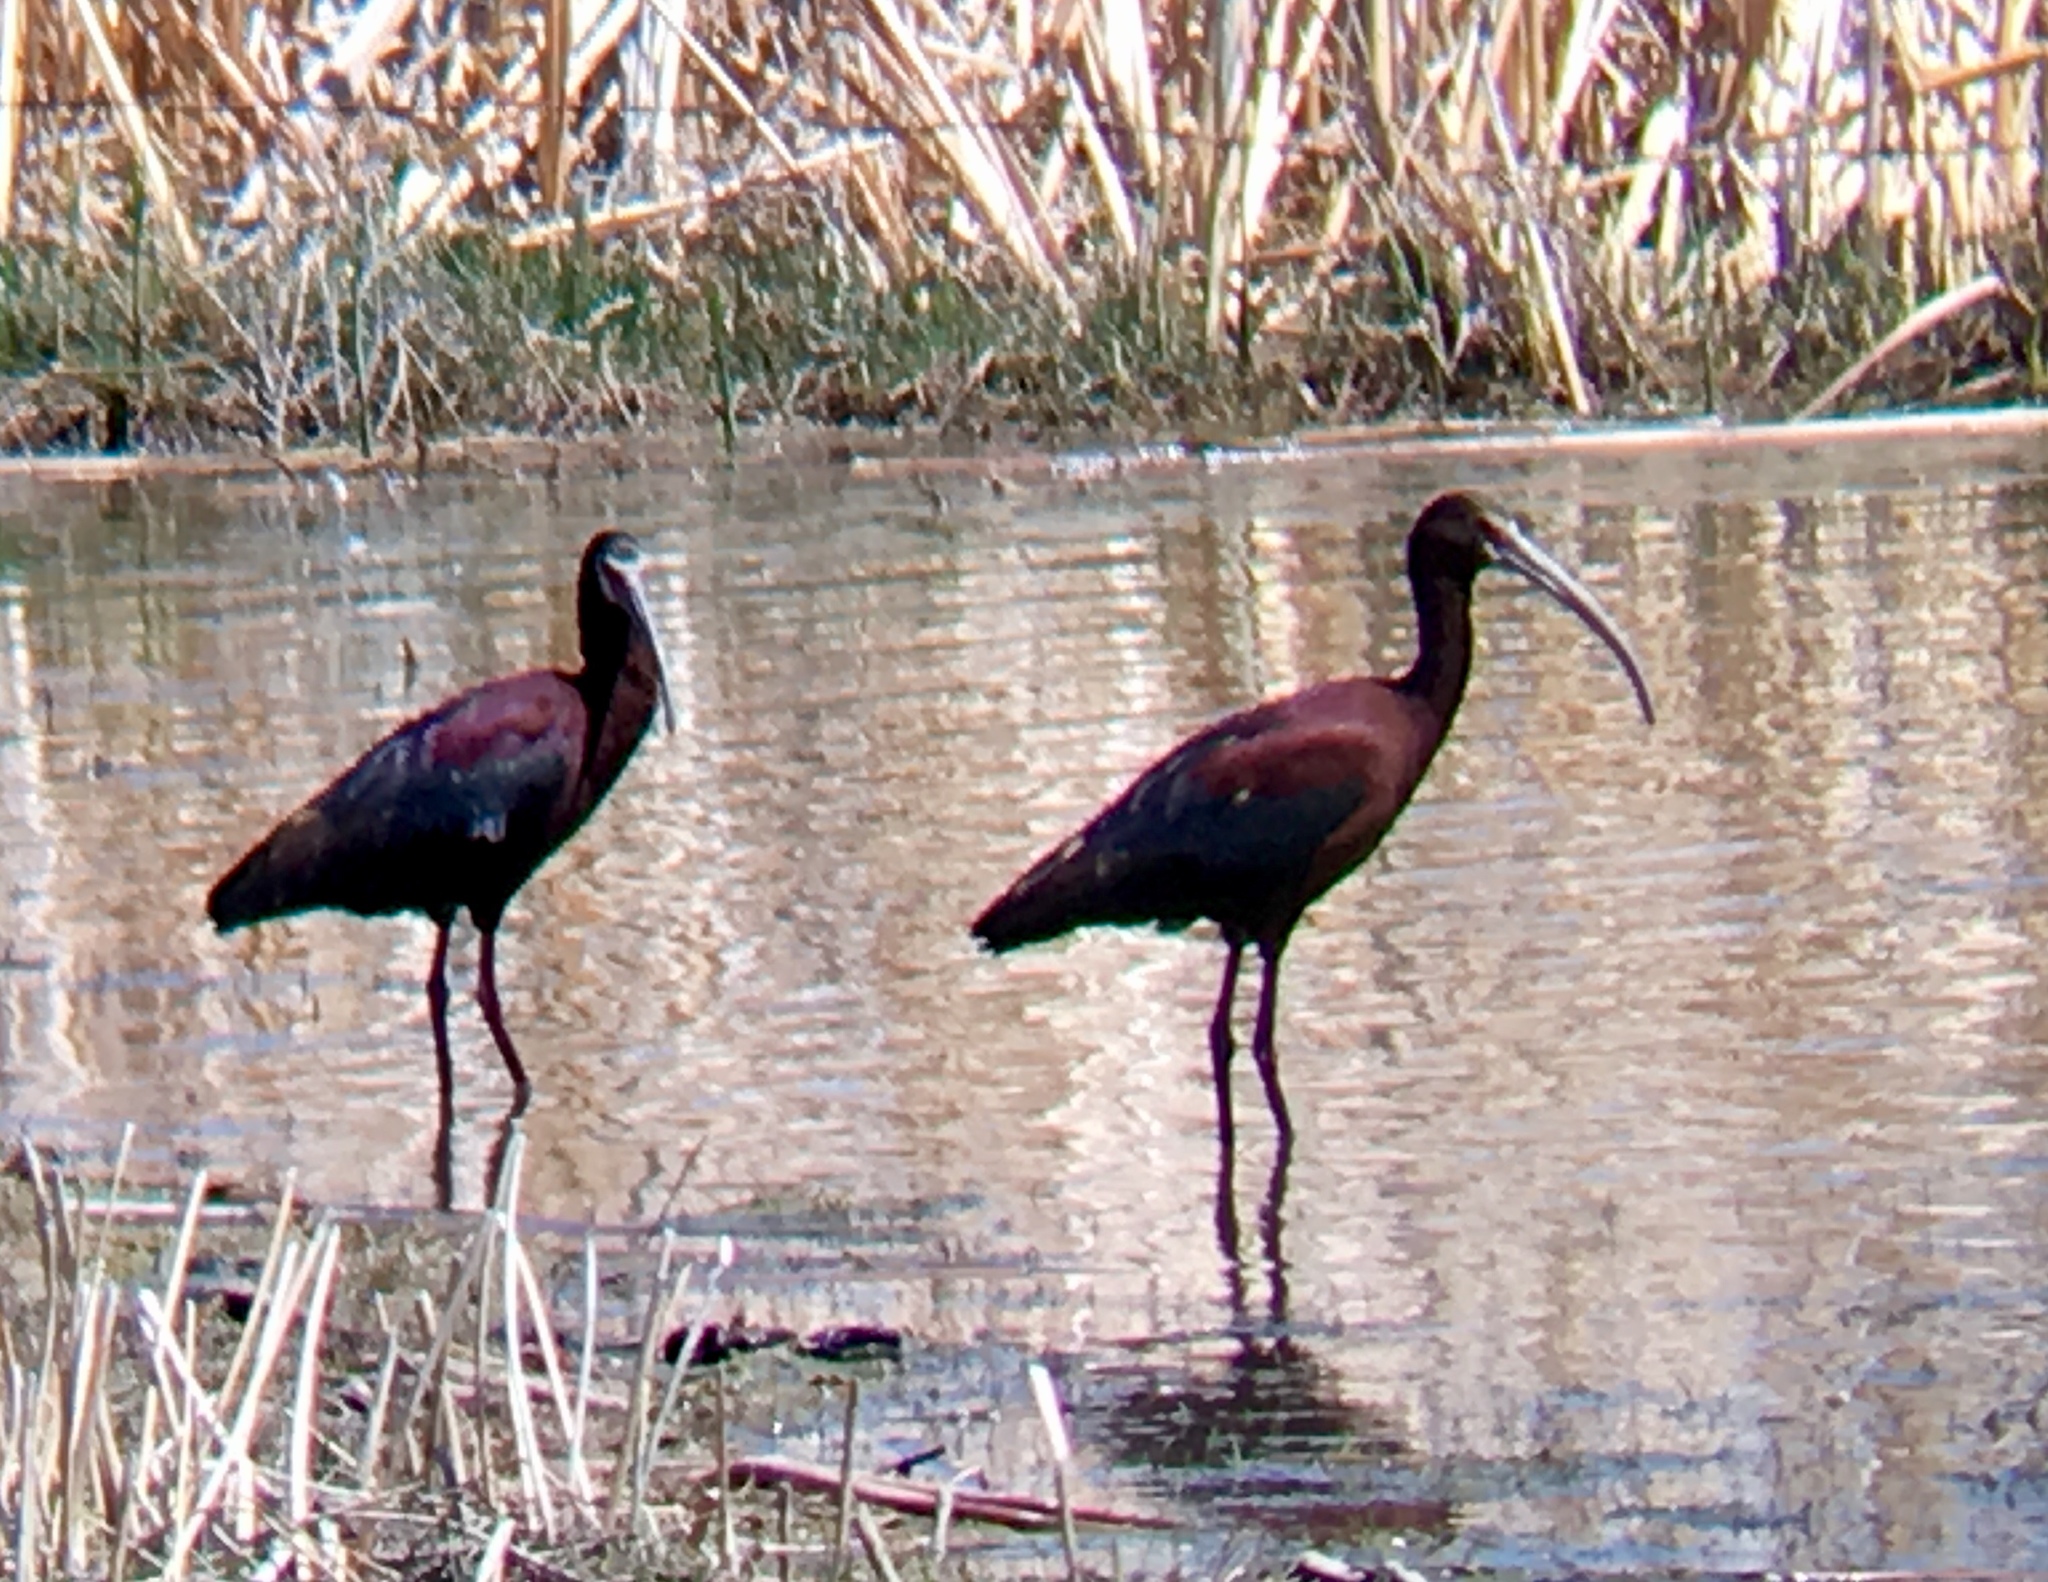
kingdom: Animalia
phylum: Chordata
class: Aves
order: Pelecaniformes
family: Threskiornithidae
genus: Plegadis
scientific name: Plegadis chihi
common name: White-faced ibis
